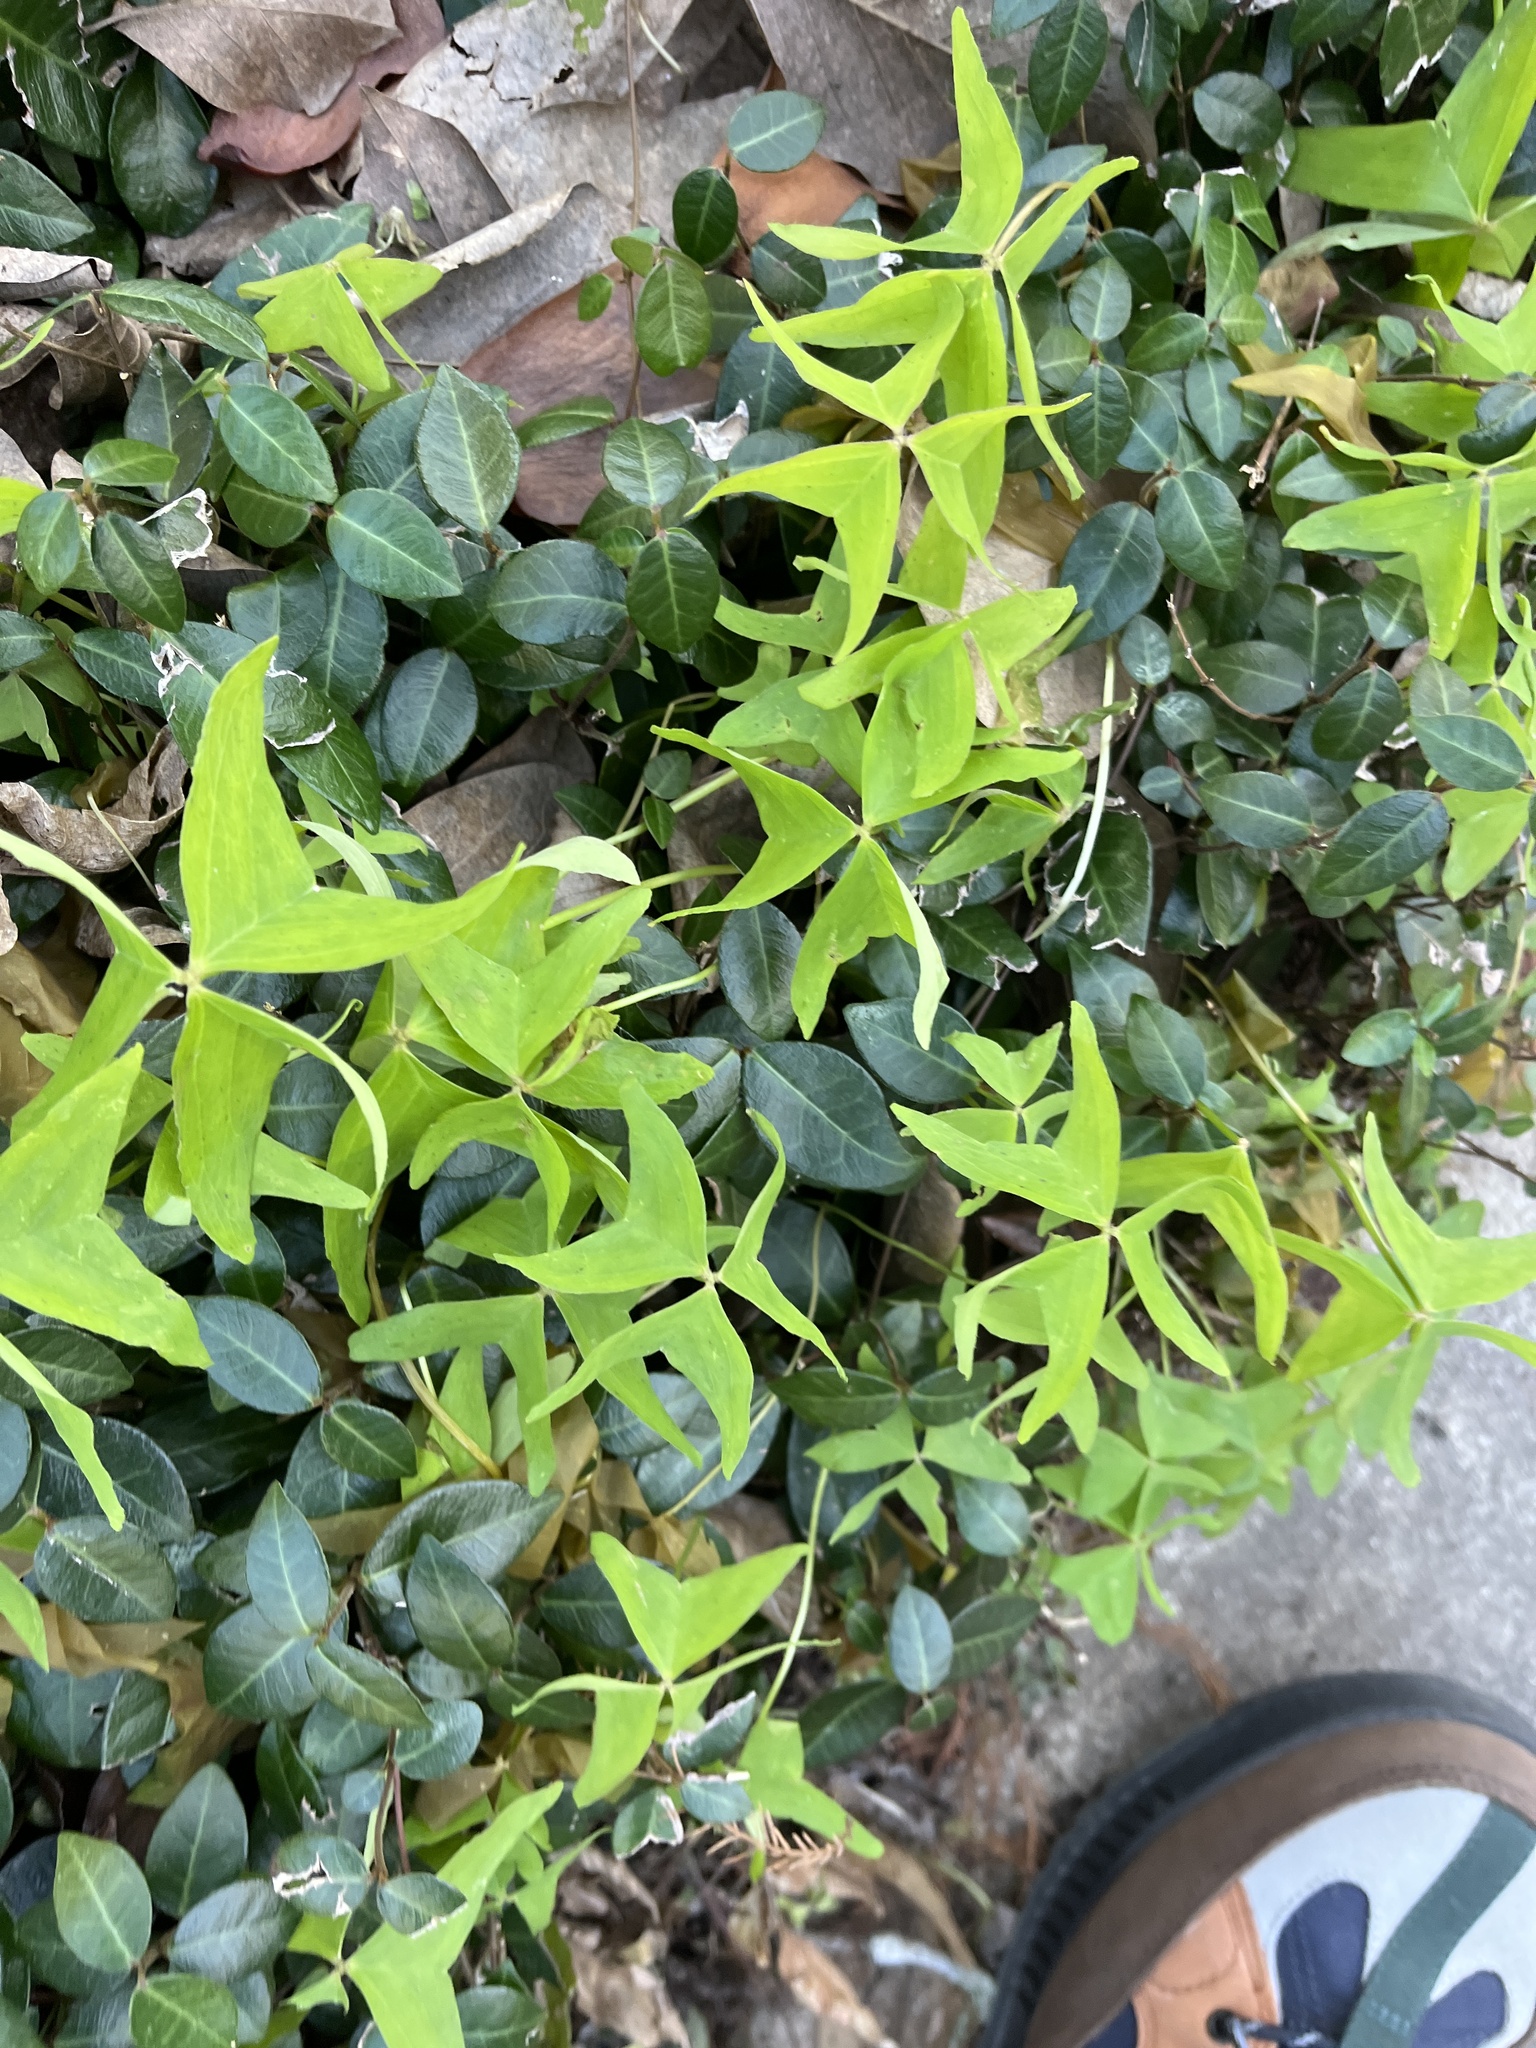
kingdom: Plantae
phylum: Tracheophyta
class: Magnoliopsida
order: Oxalidales
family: Oxalidaceae
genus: Oxalis
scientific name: Oxalis intermedia
